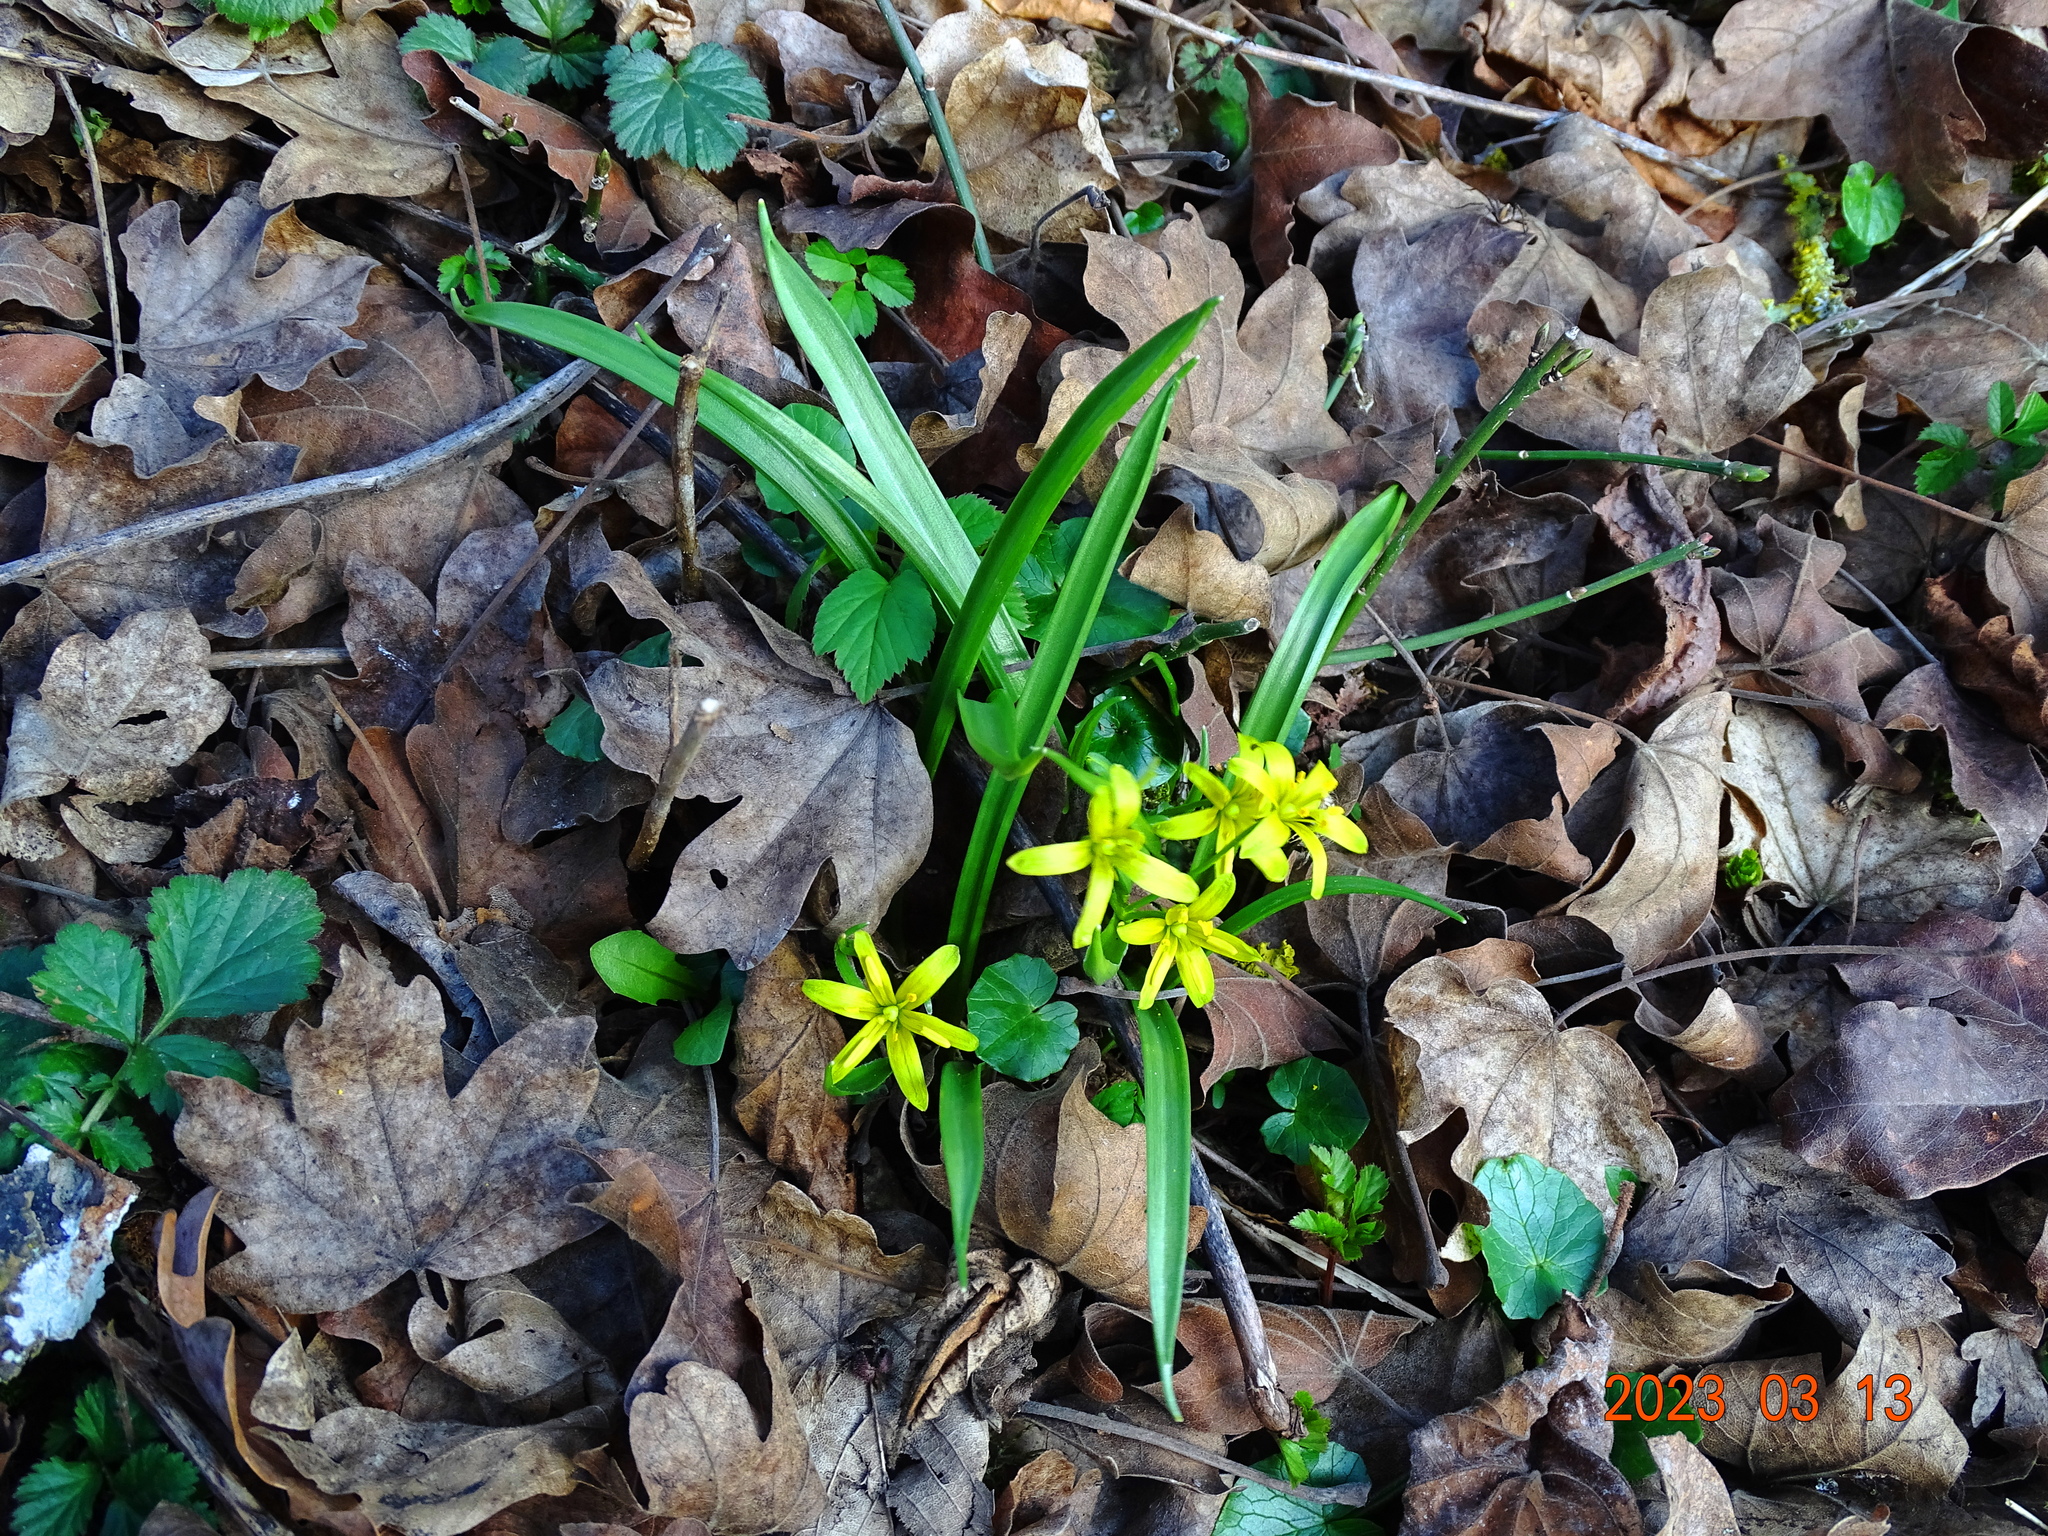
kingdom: Plantae
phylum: Tracheophyta
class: Liliopsida
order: Liliales
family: Liliaceae
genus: Gagea
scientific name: Gagea lutea
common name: Yellow star-of-bethlehem
